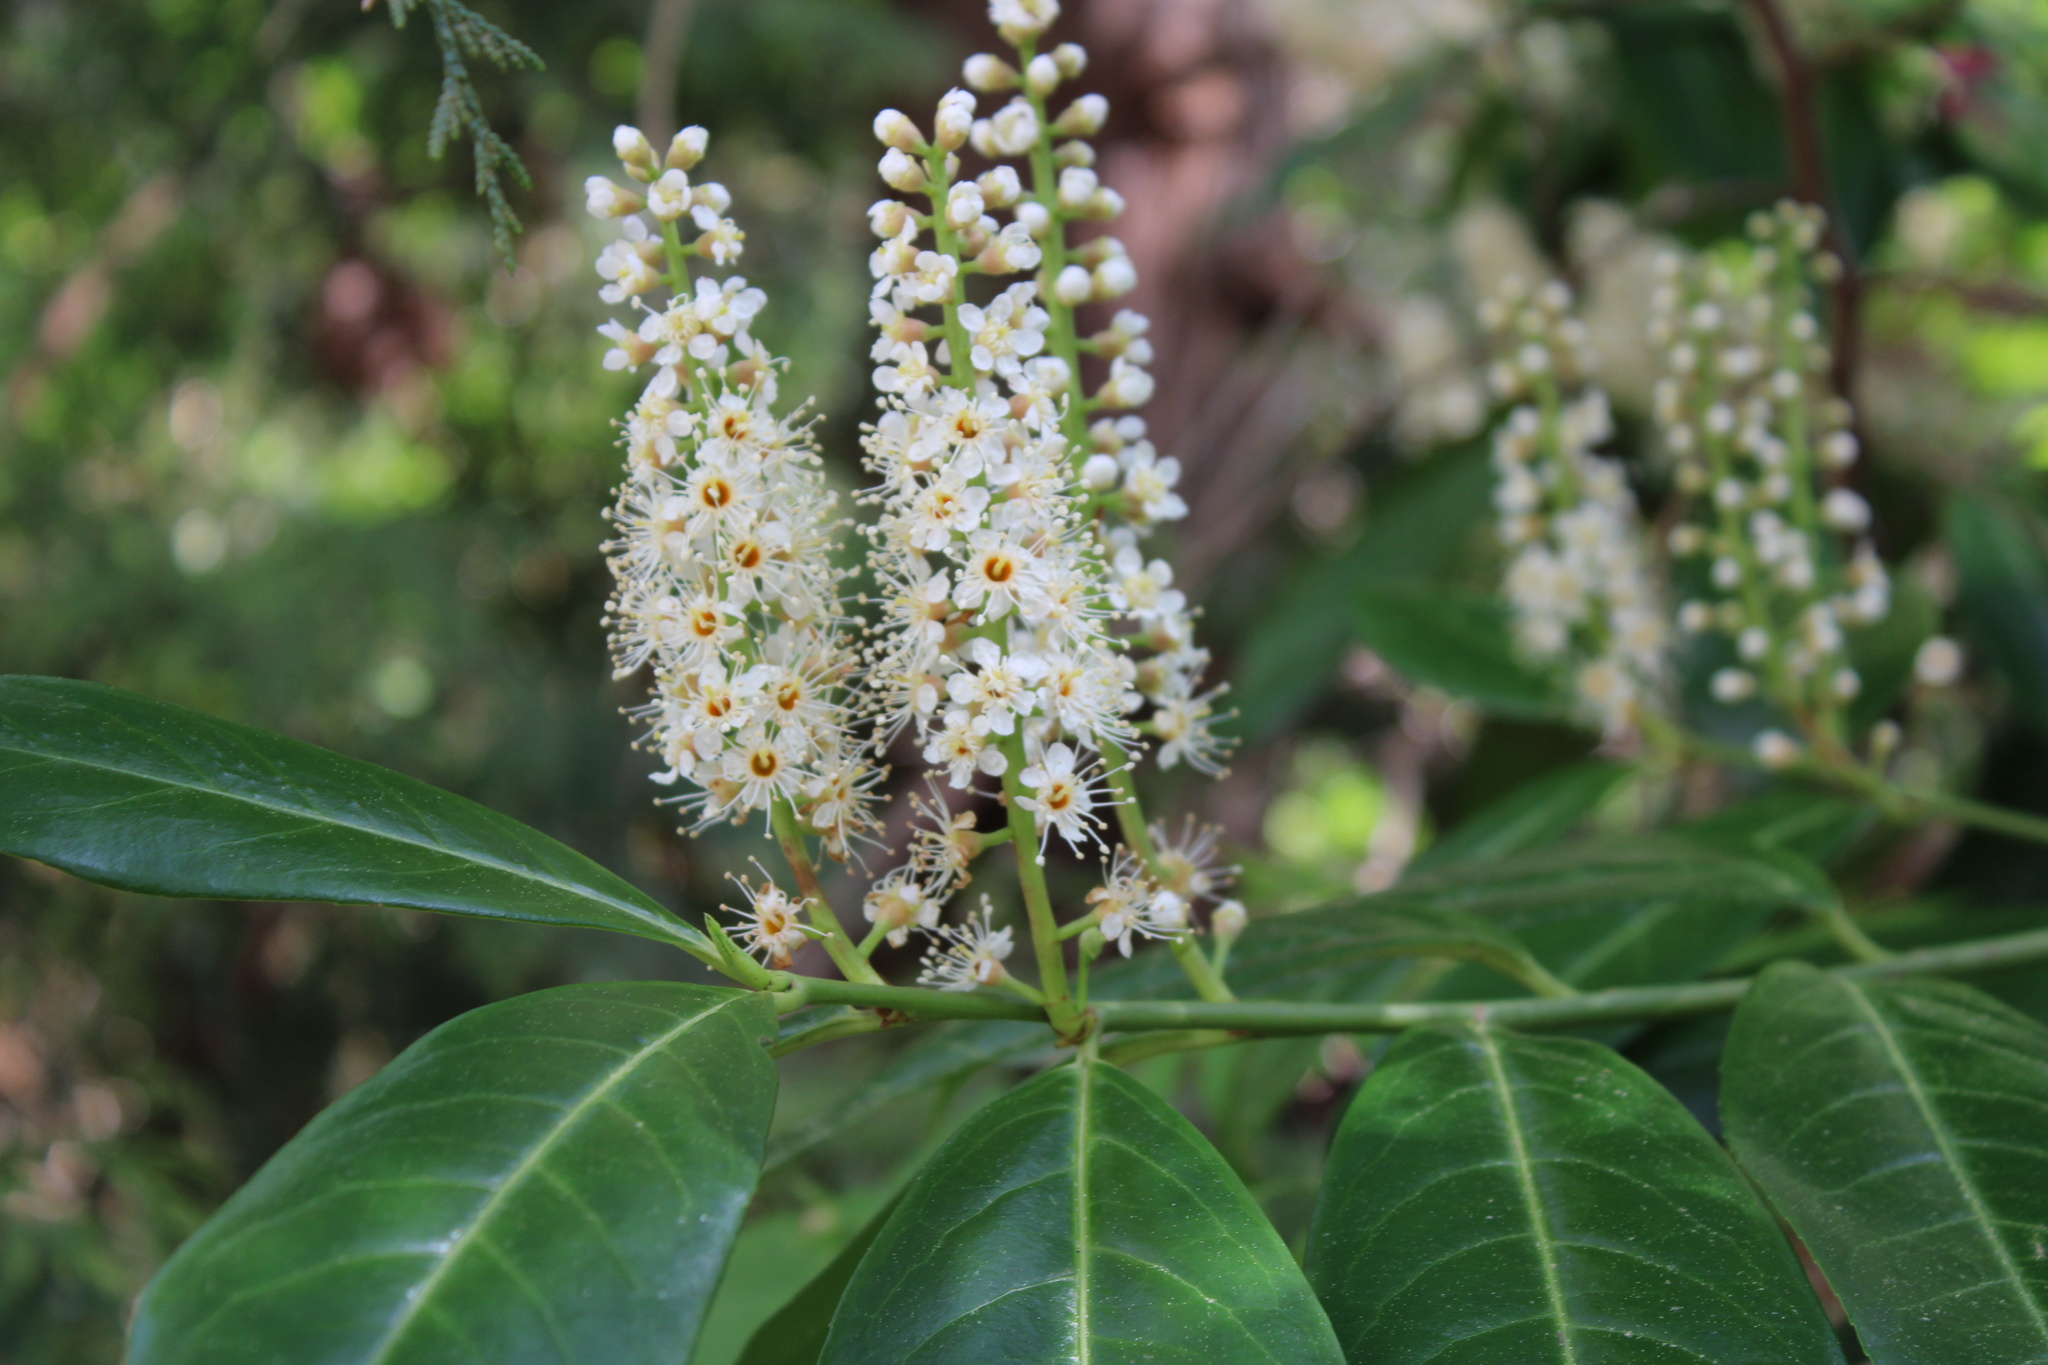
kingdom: Plantae
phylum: Tracheophyta
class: Magnoliopsida
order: Rosales
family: Rosaceae
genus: Prunus
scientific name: Prunus laurocerasus
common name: Cherry laurel
